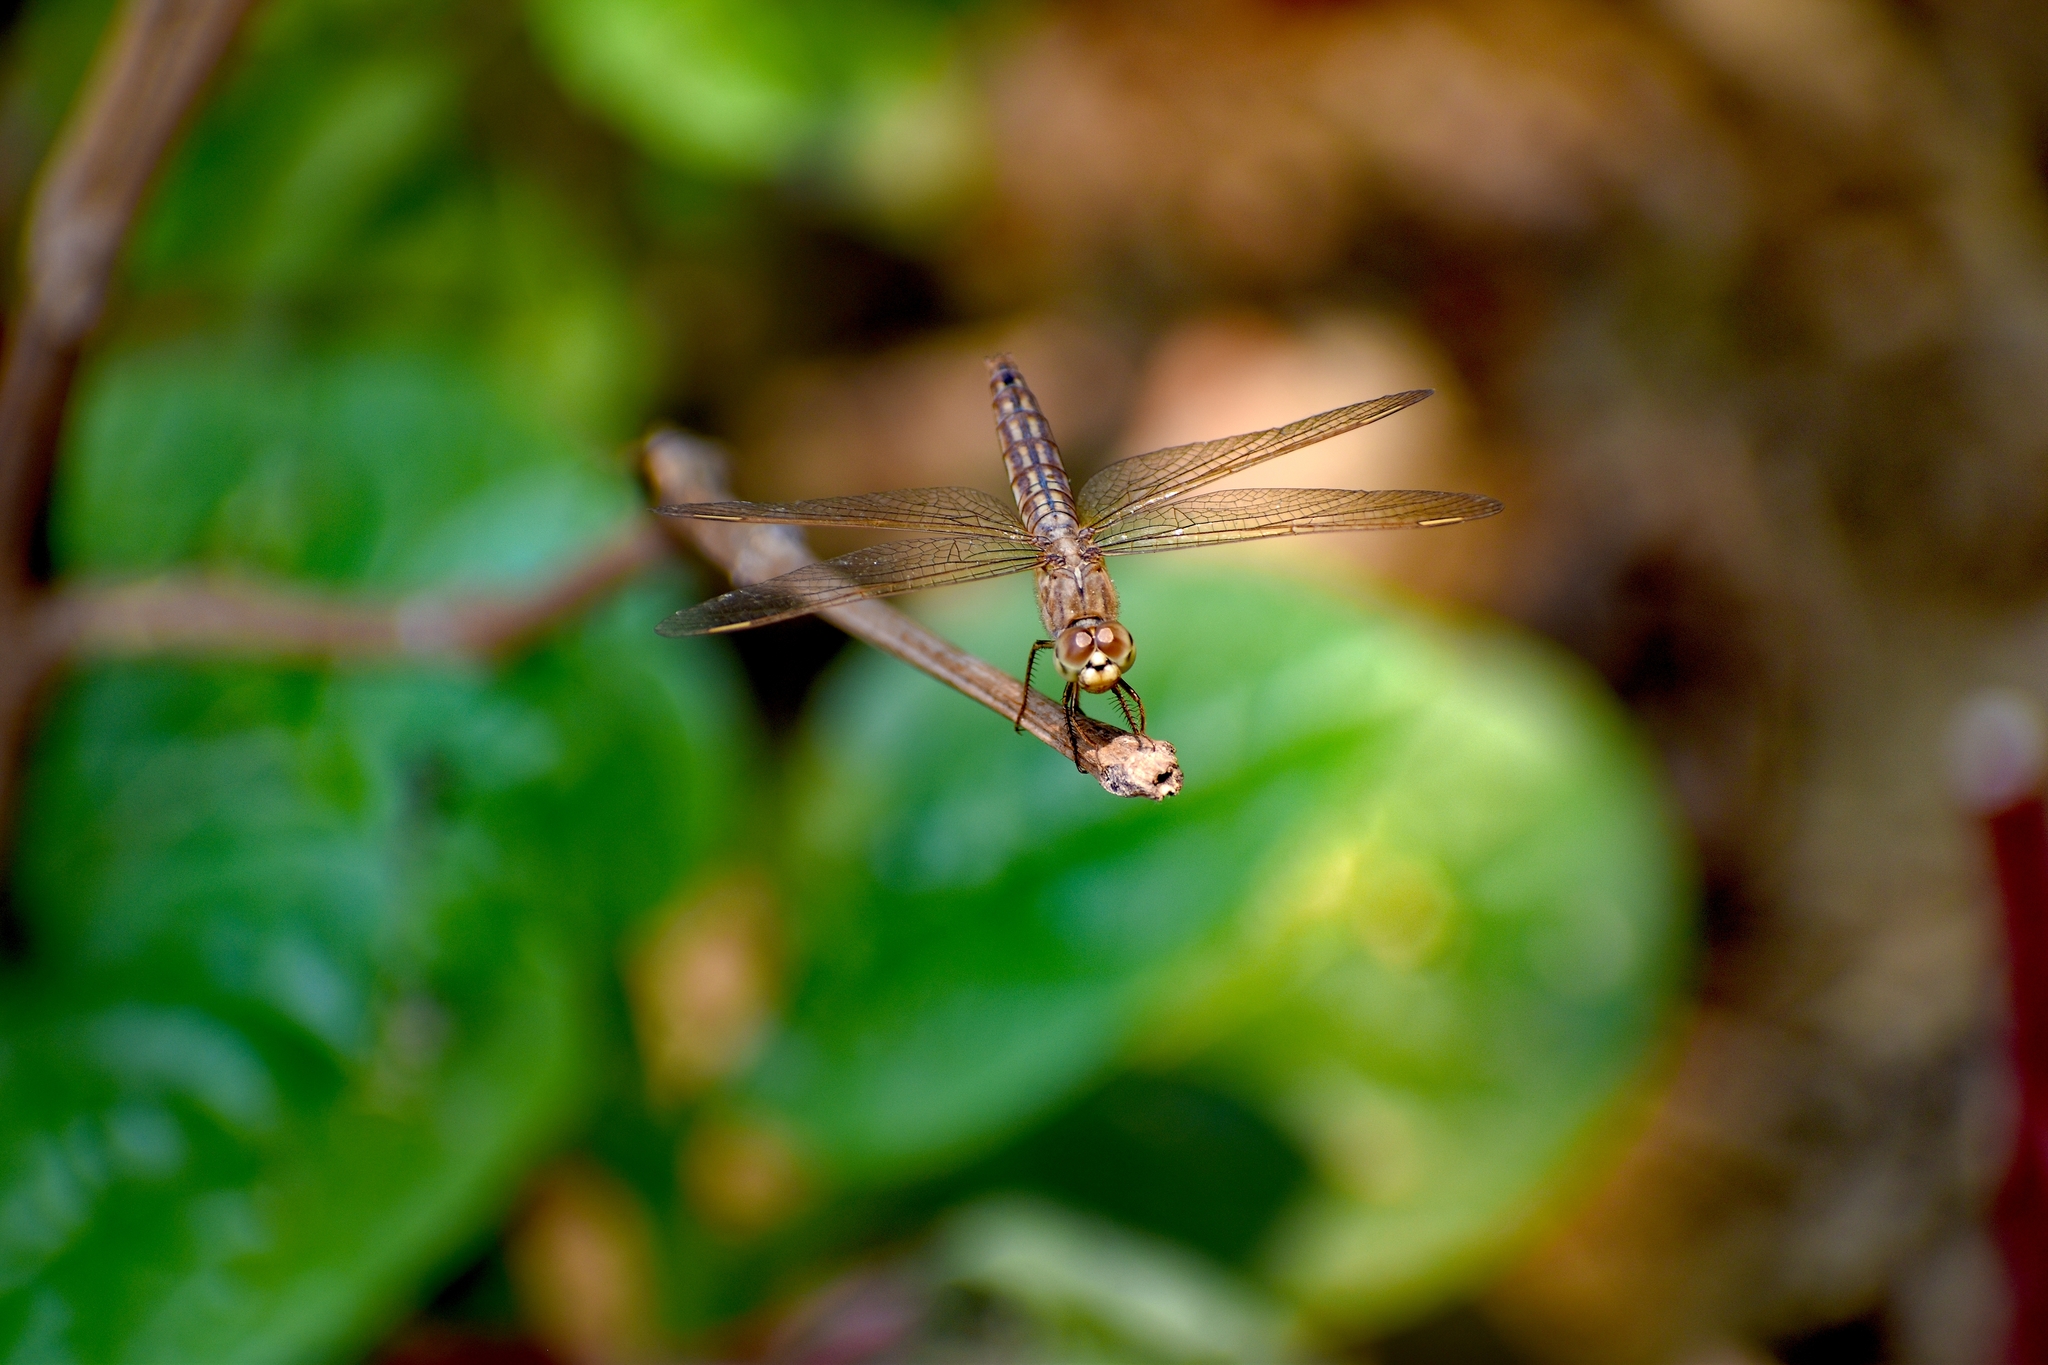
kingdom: Animalia
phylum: Arthropoda
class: Insecta
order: Odonata
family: Libellulidae
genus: Brachythemis
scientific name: Brachythemis contaminata
